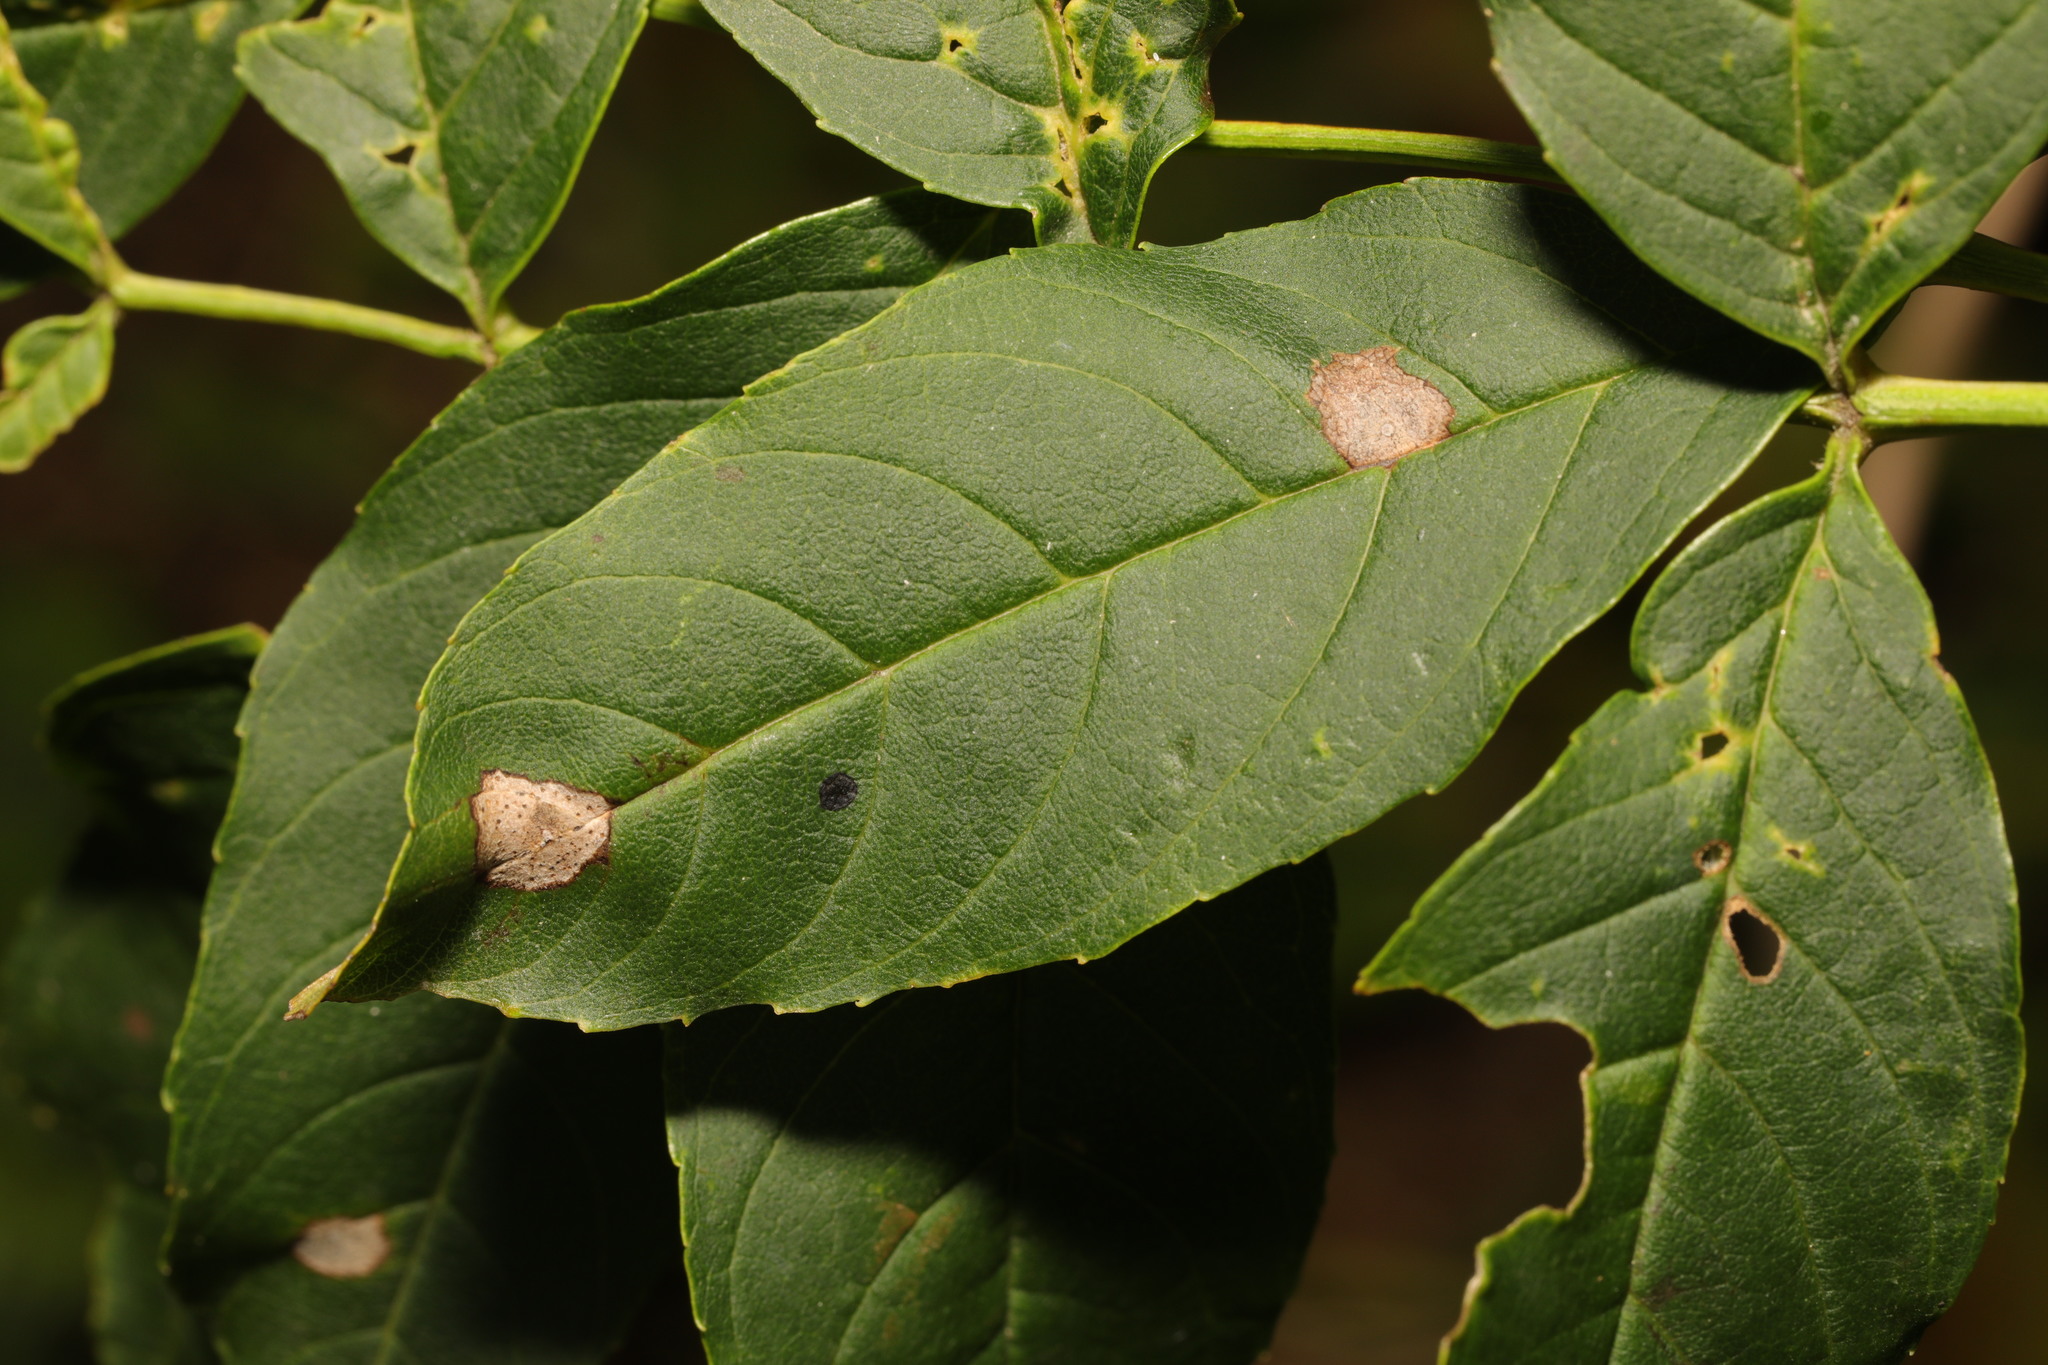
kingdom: Animalia
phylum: Arthropoda
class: Insecta
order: Diptera
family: Cecidomyiidae
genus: Dasineura
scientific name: Dasineura fraxinea
